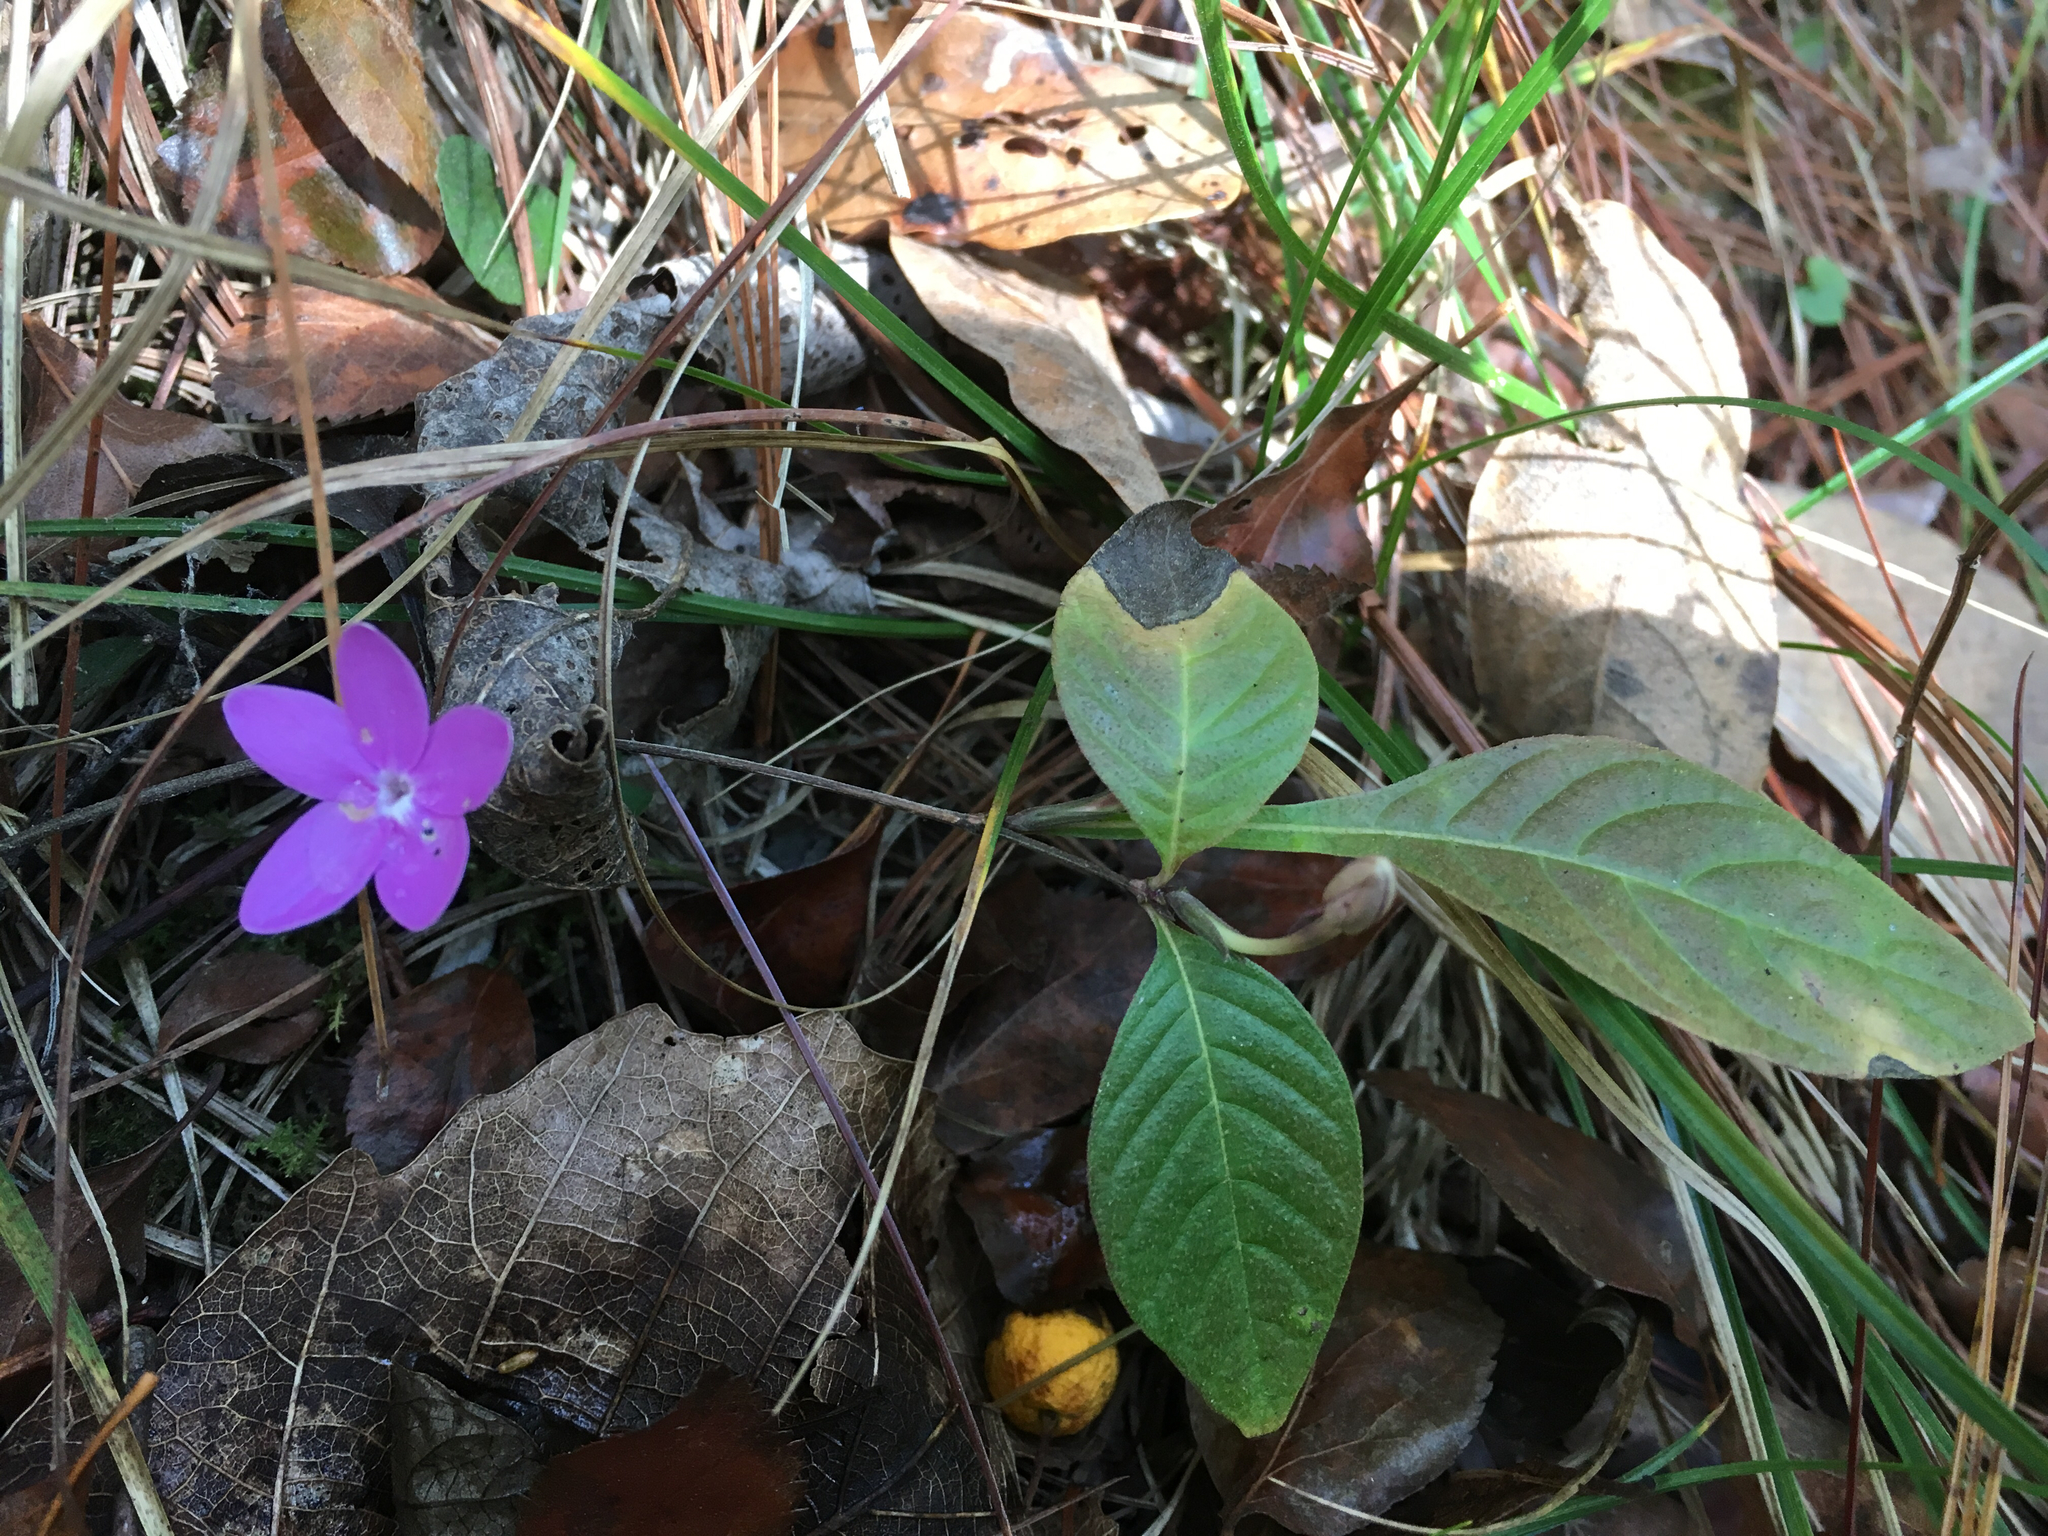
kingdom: Plantae
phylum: Tracheophyta
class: Magnoliopsida
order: Lamiales
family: Acanthaceae
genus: Pseuderanthemum
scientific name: Pseuderanthemum praecox
